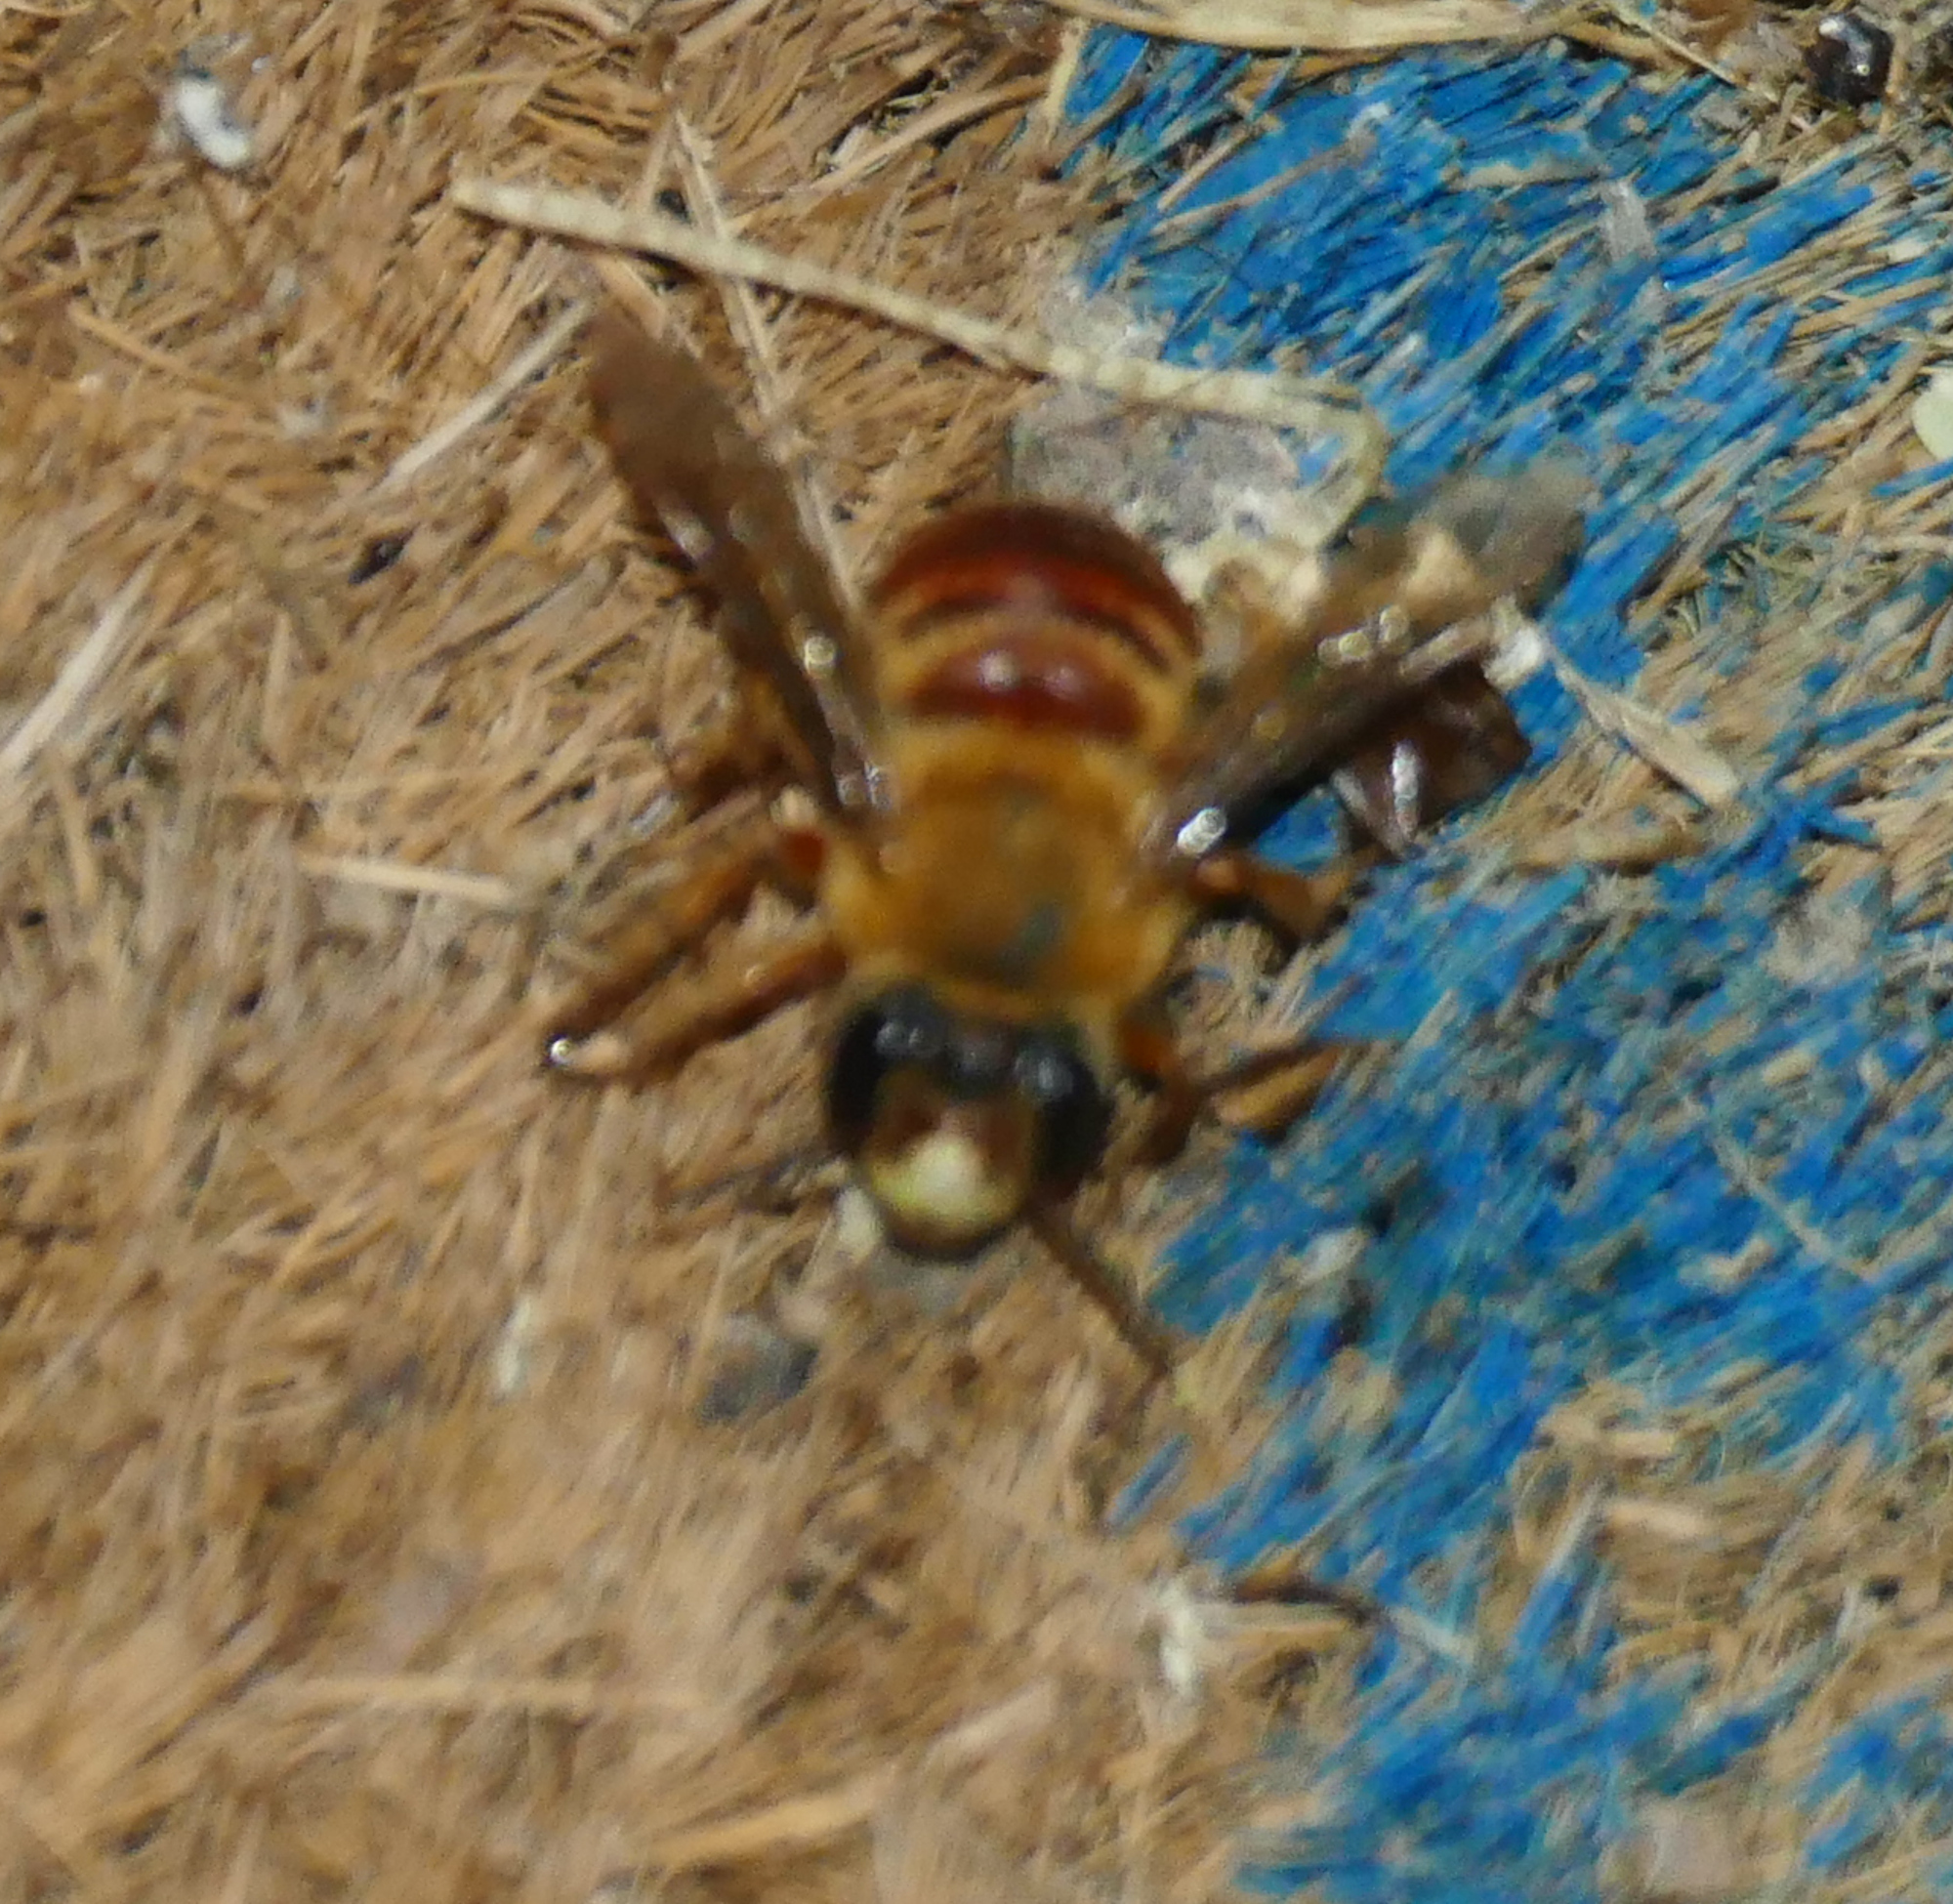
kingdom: Animalia
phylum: Arthropoda
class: Insecta
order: Hymenoptera
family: Apidae
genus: Xenoglossa
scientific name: Xenoglossa angustior
